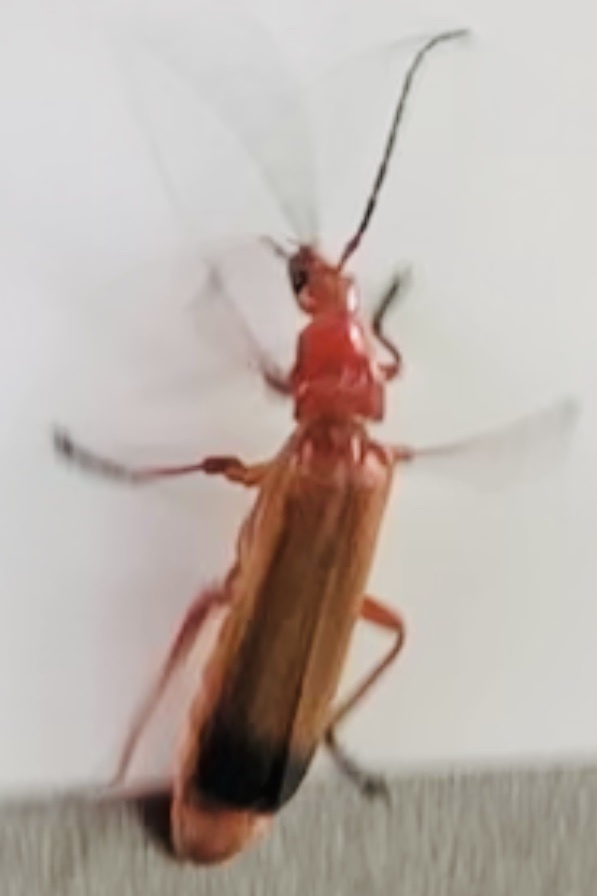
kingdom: Animalia
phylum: Arthropoda
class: Insecta
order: Coleoptera
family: Cantharidae
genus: Rhagonycha
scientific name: Rhagonycha fulva
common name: Common red soldier beetle
